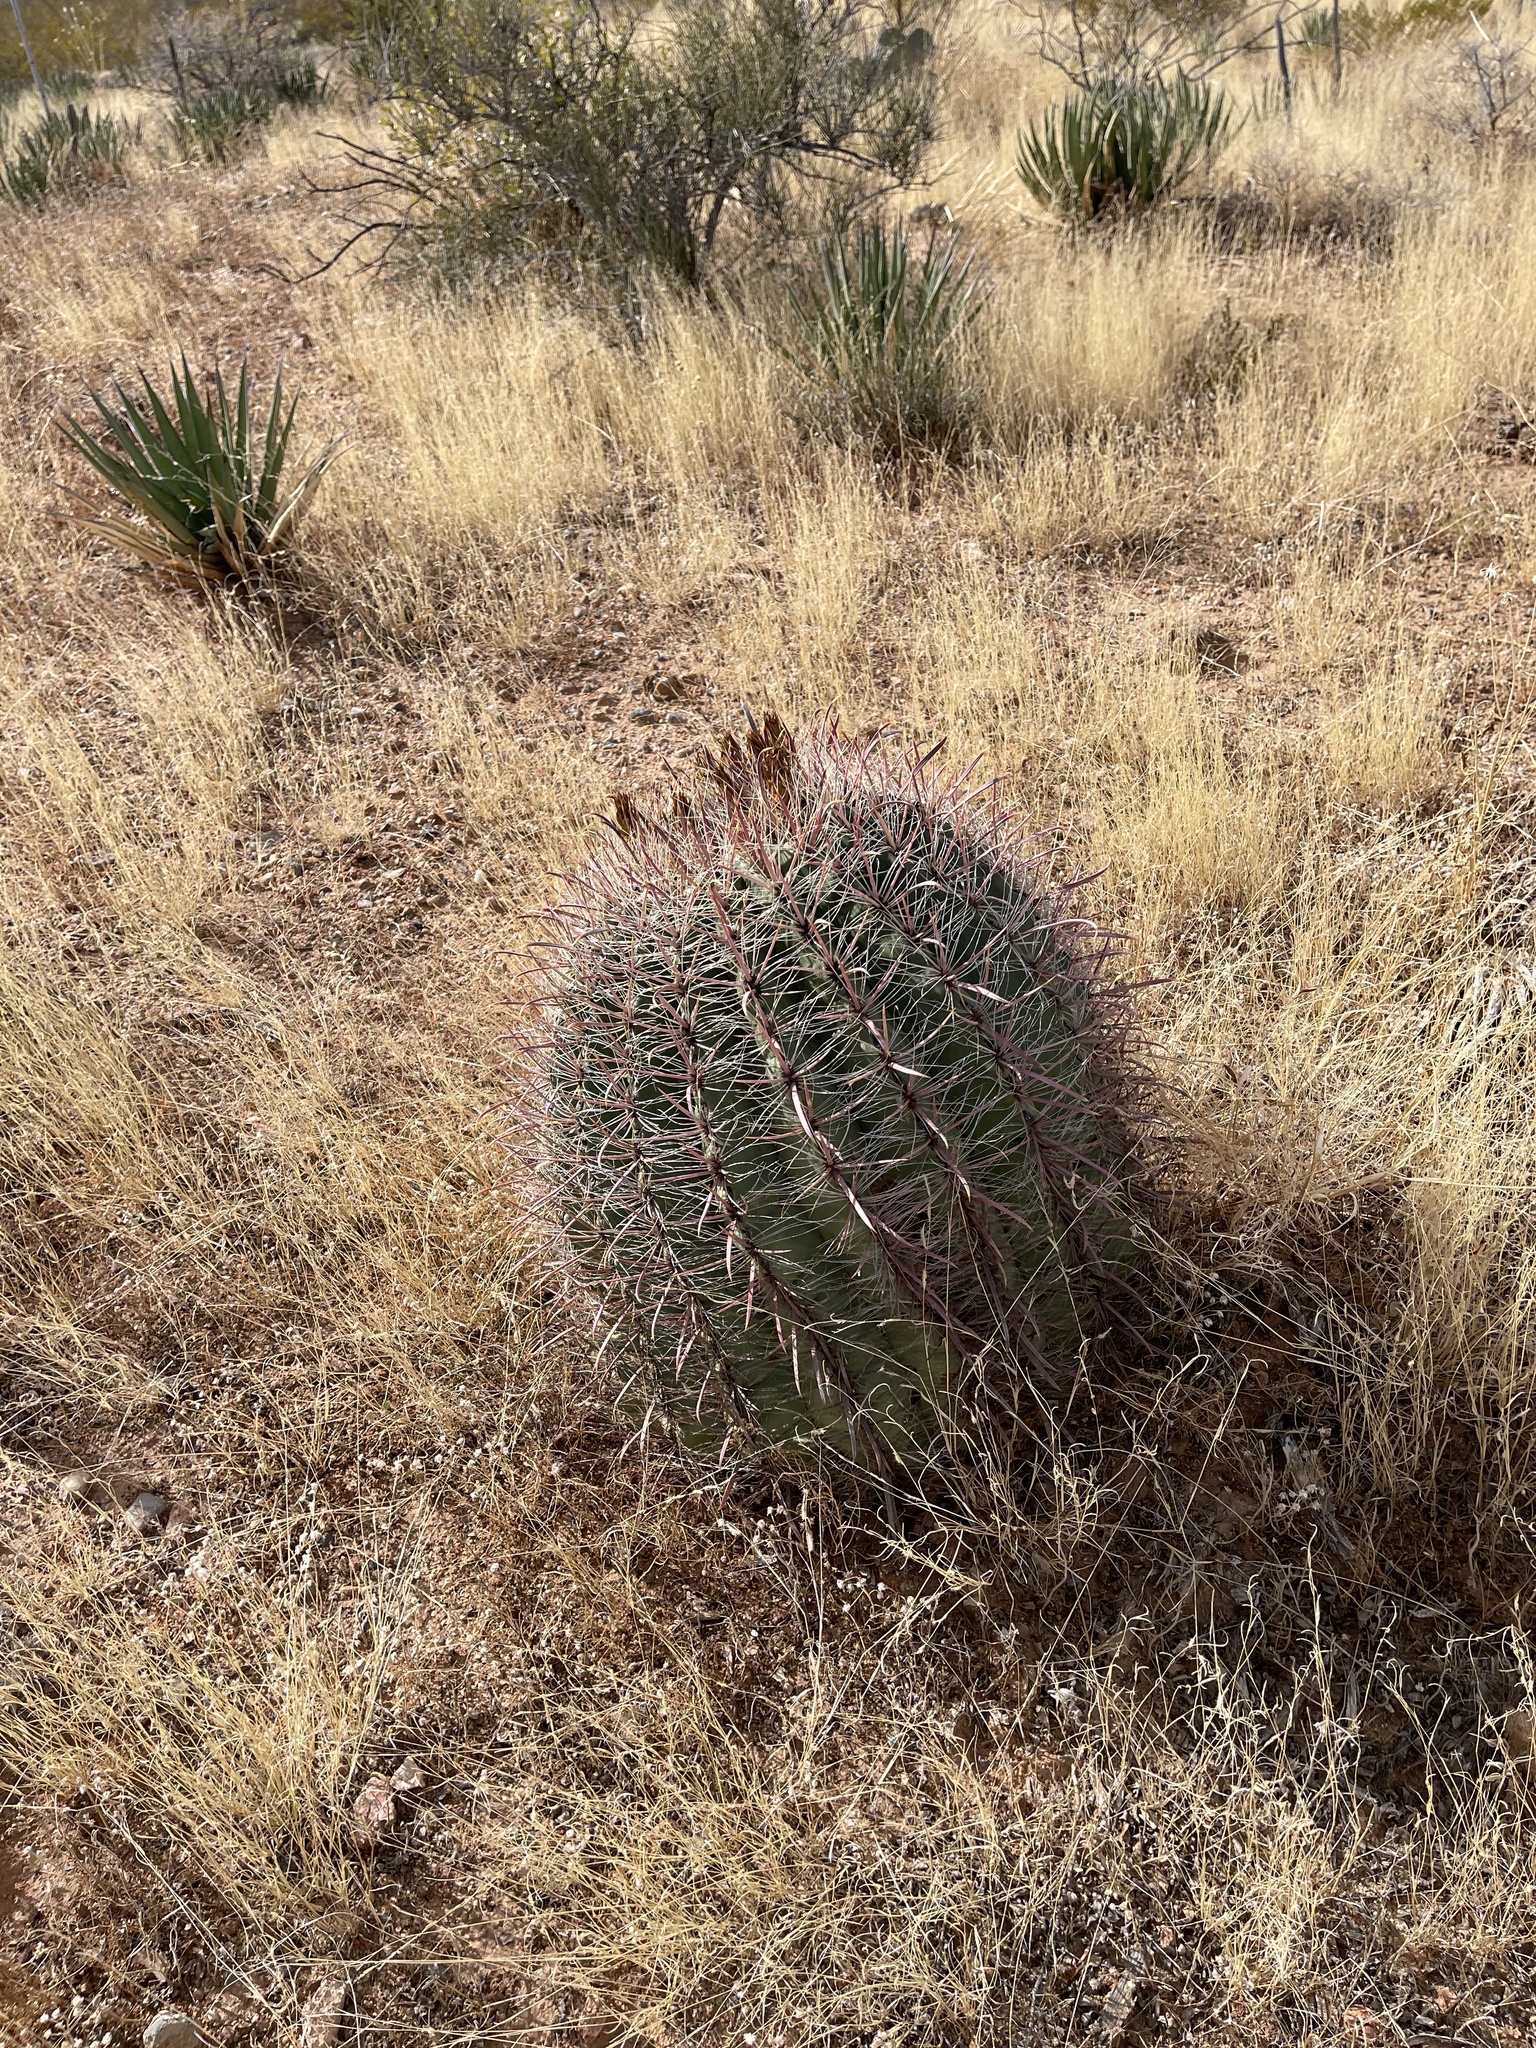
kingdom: Plantae
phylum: Tracheophyta
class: Magnoliopsida
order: Caryophyllales
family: Cactaceae
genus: Ferocactus
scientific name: Ferocactus wislizeni
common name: Candy barrel cactus
